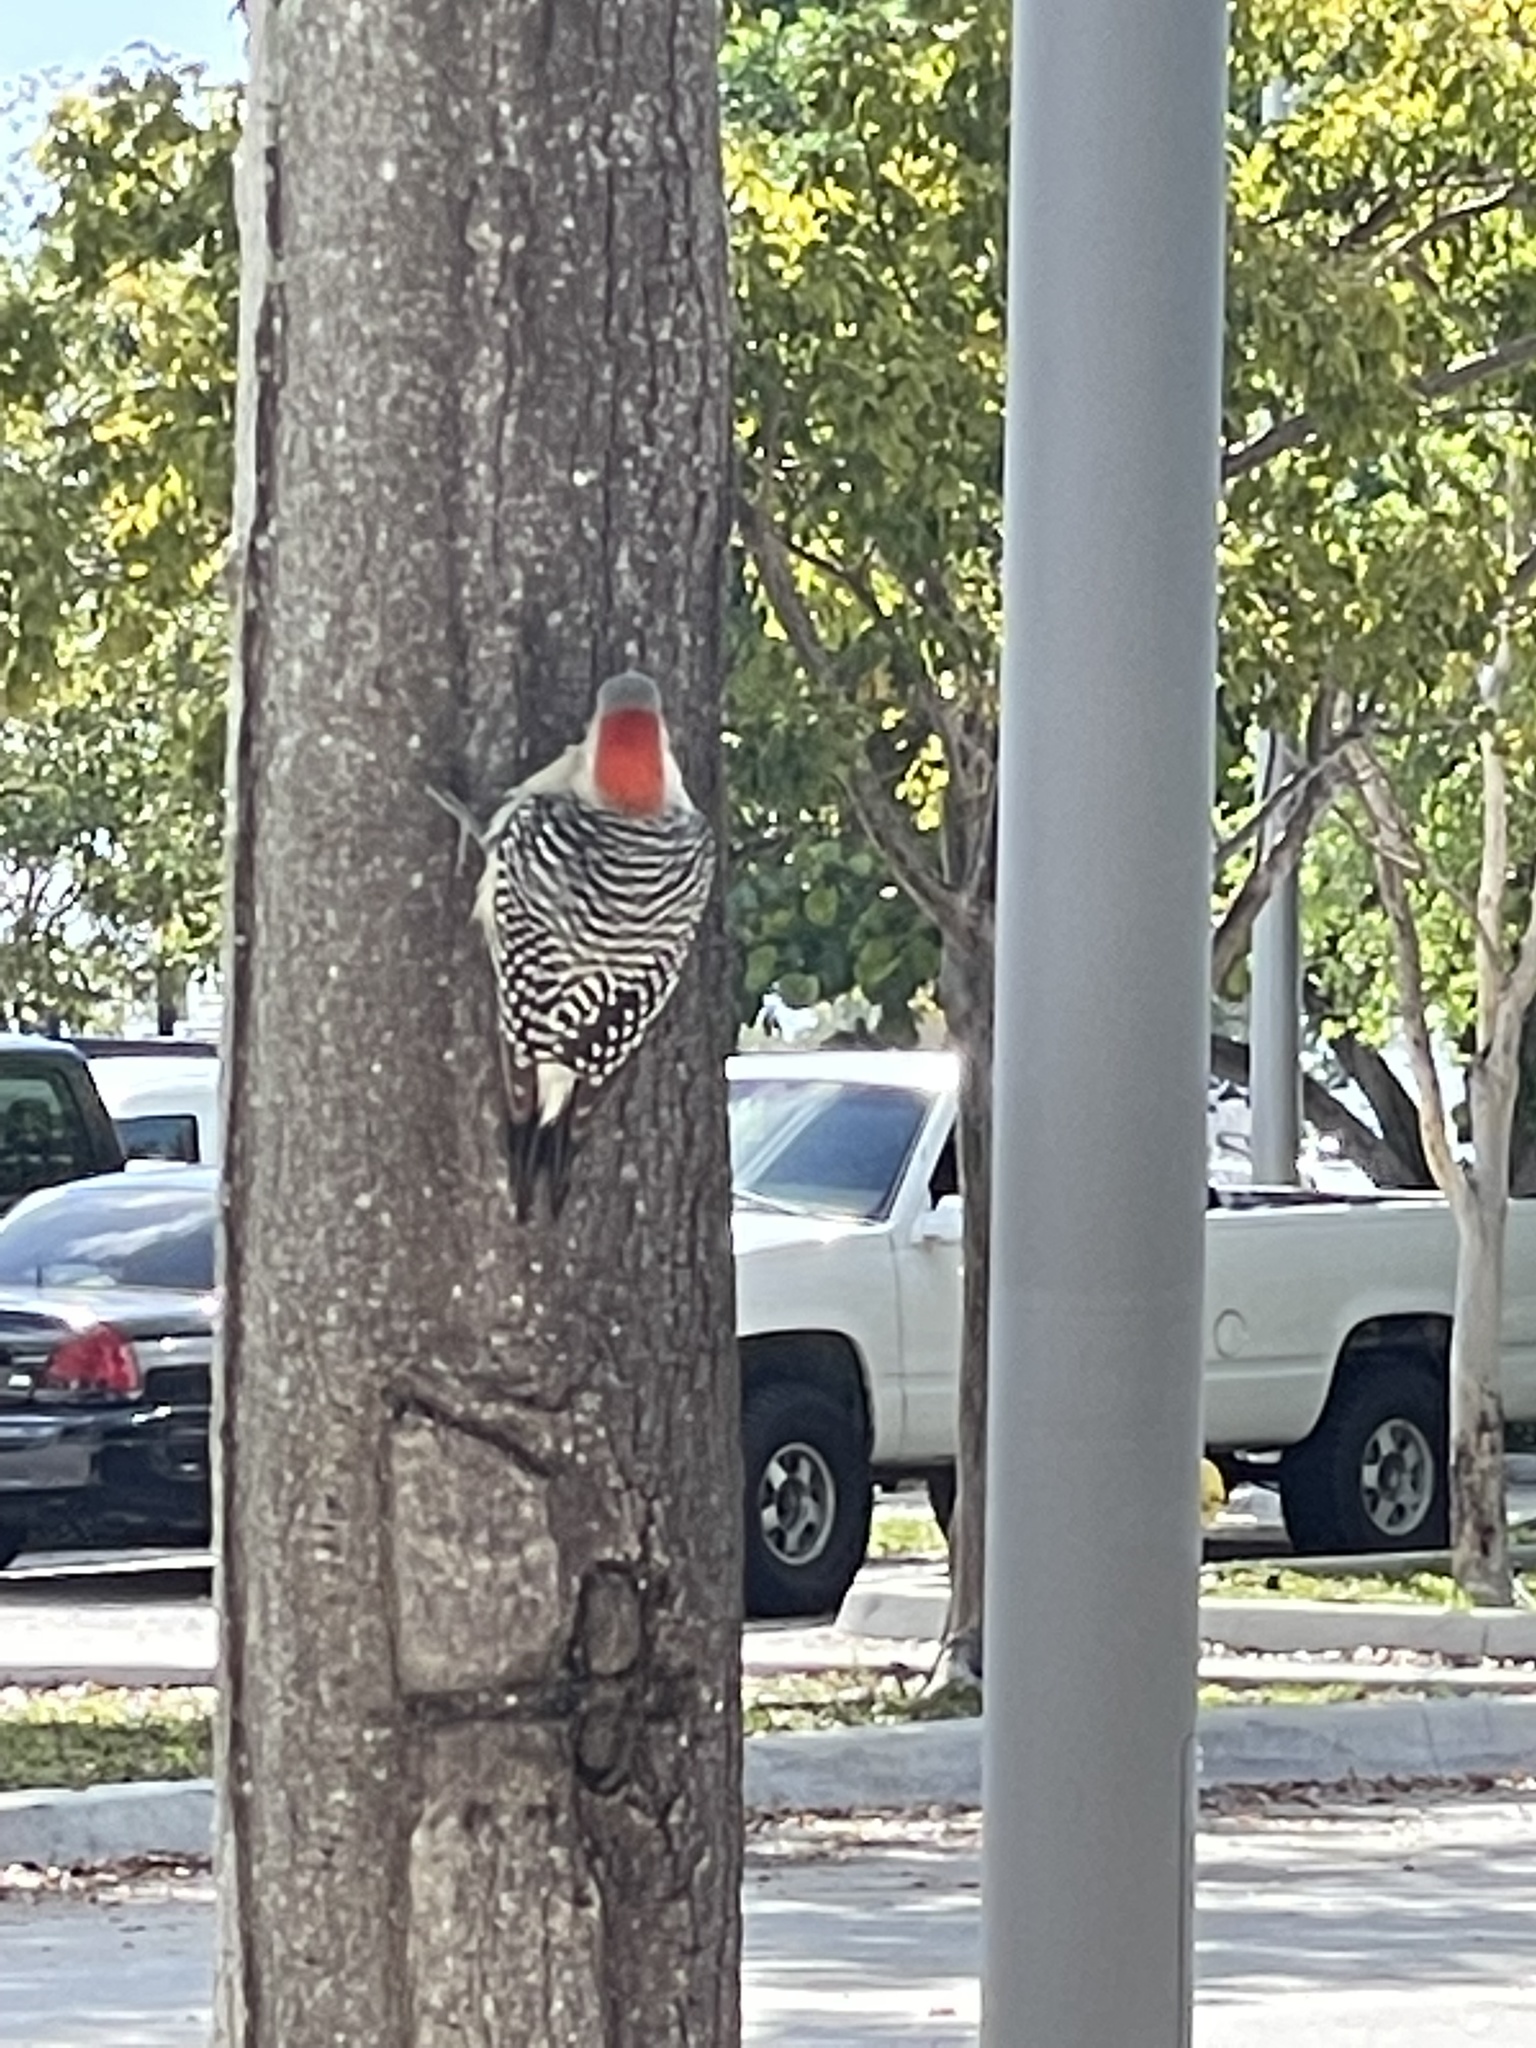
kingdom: Animalia
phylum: Chordata
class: Aves
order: Piciformes
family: Picidae
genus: Melanerpes
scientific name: Melanerpes carolinus
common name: Red-bellied woodpecker
